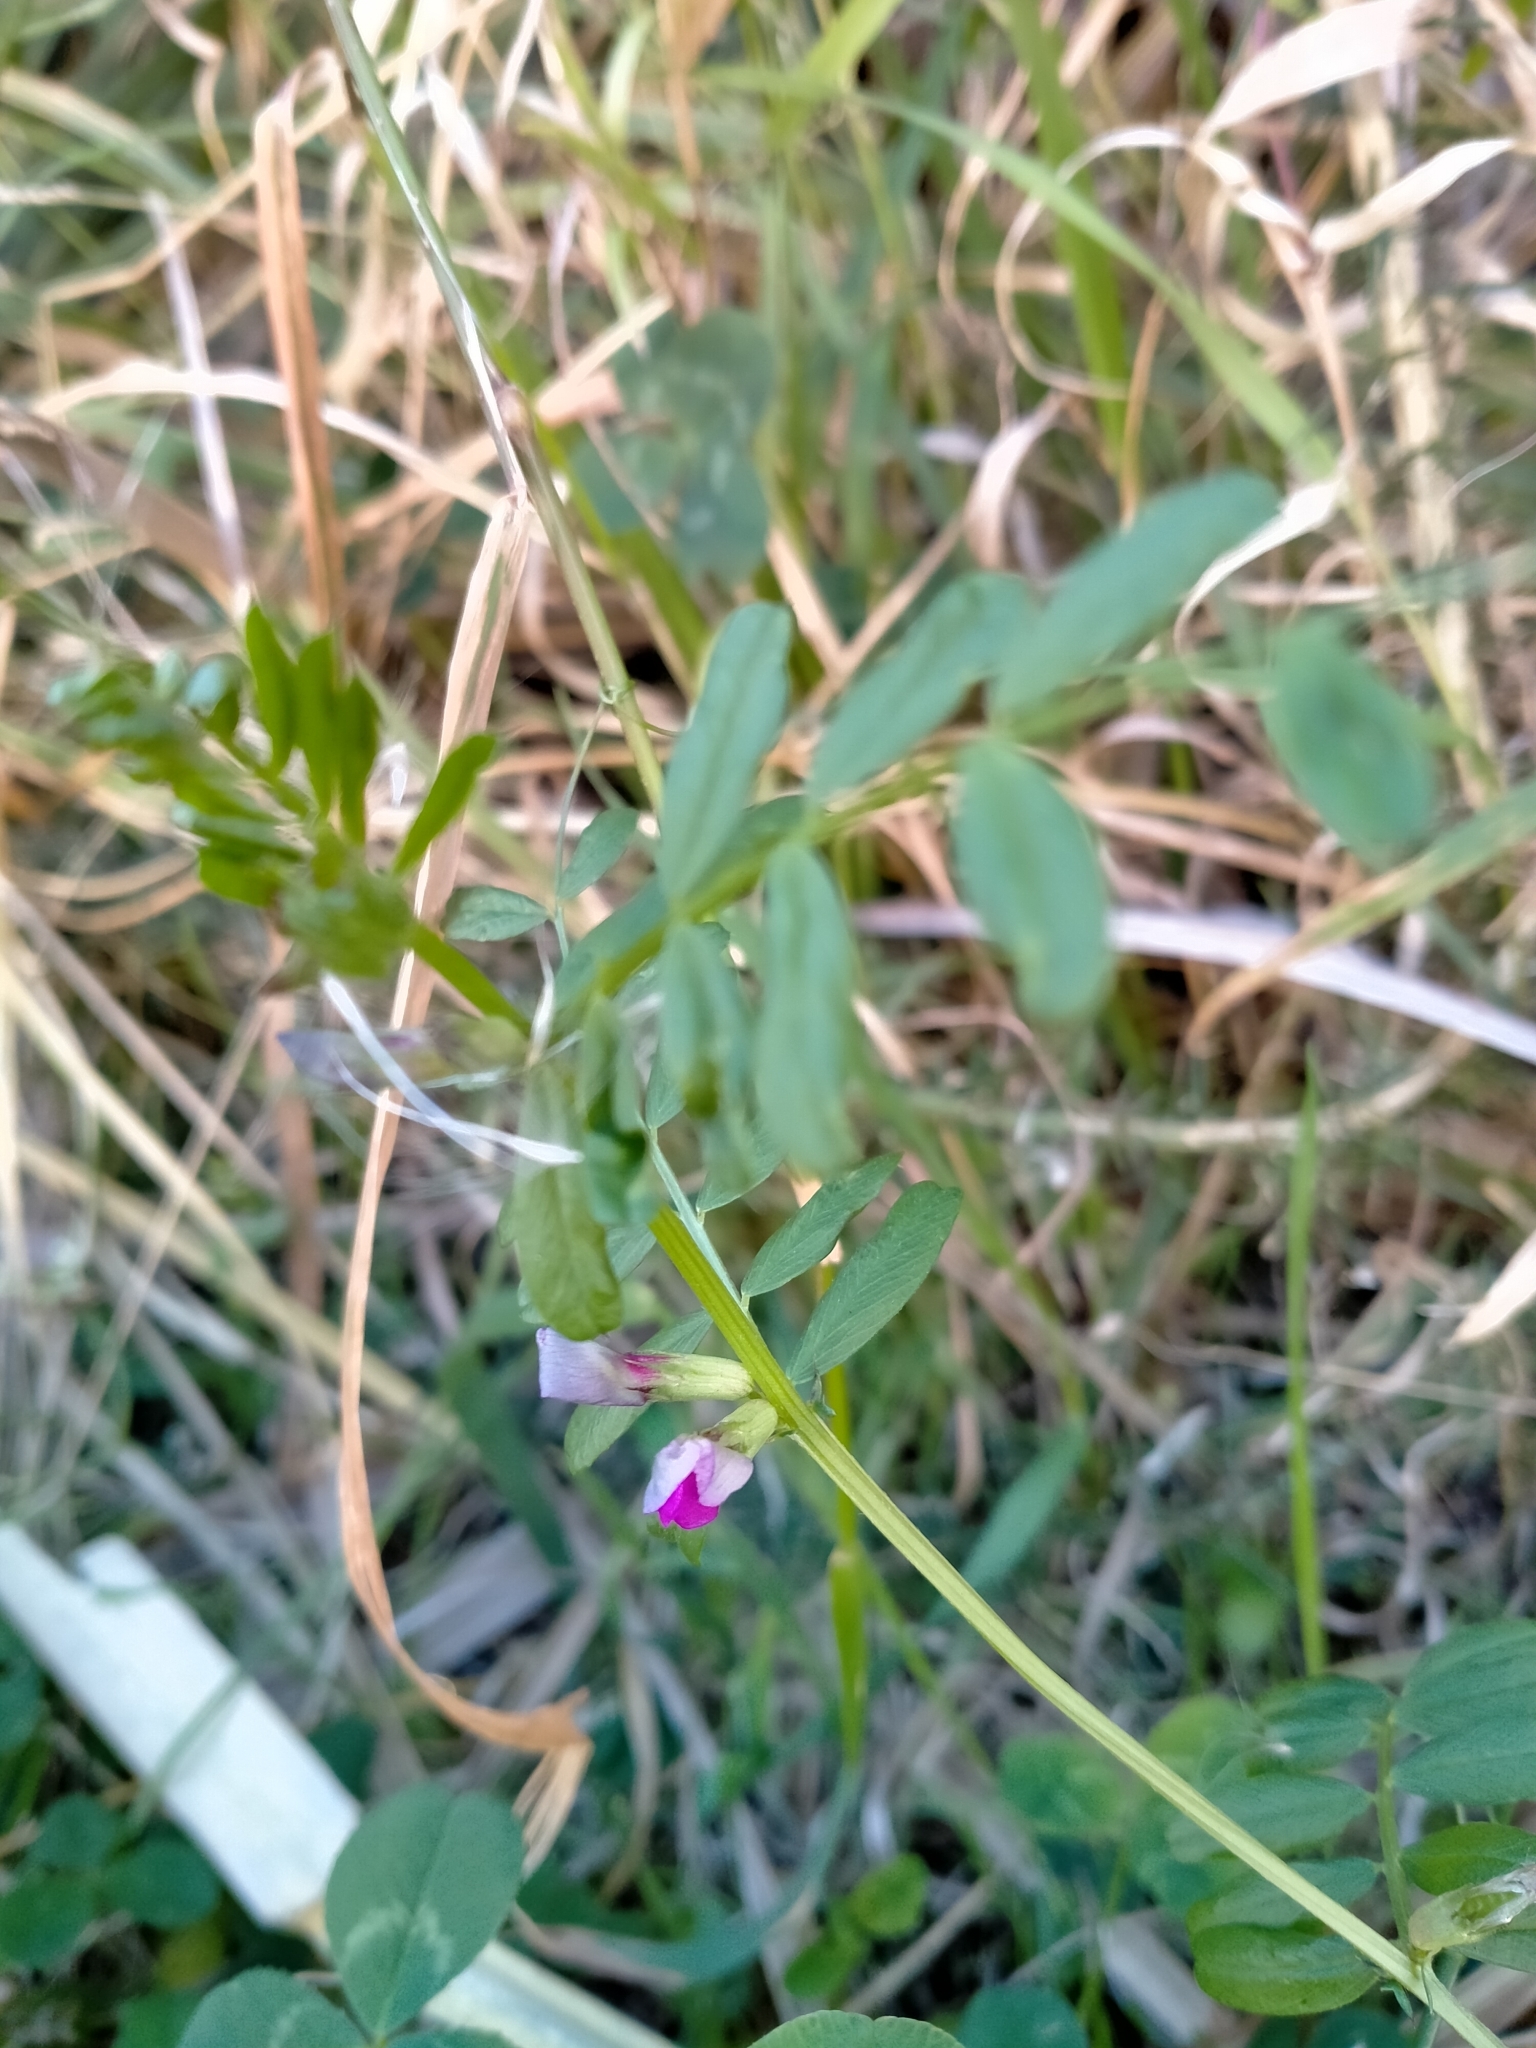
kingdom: Plantae
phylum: Tracheophyta
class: Magnoliopsida
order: Fabales
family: Fabaceae
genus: Vicia
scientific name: Vicia sativa
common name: Garden vetch
